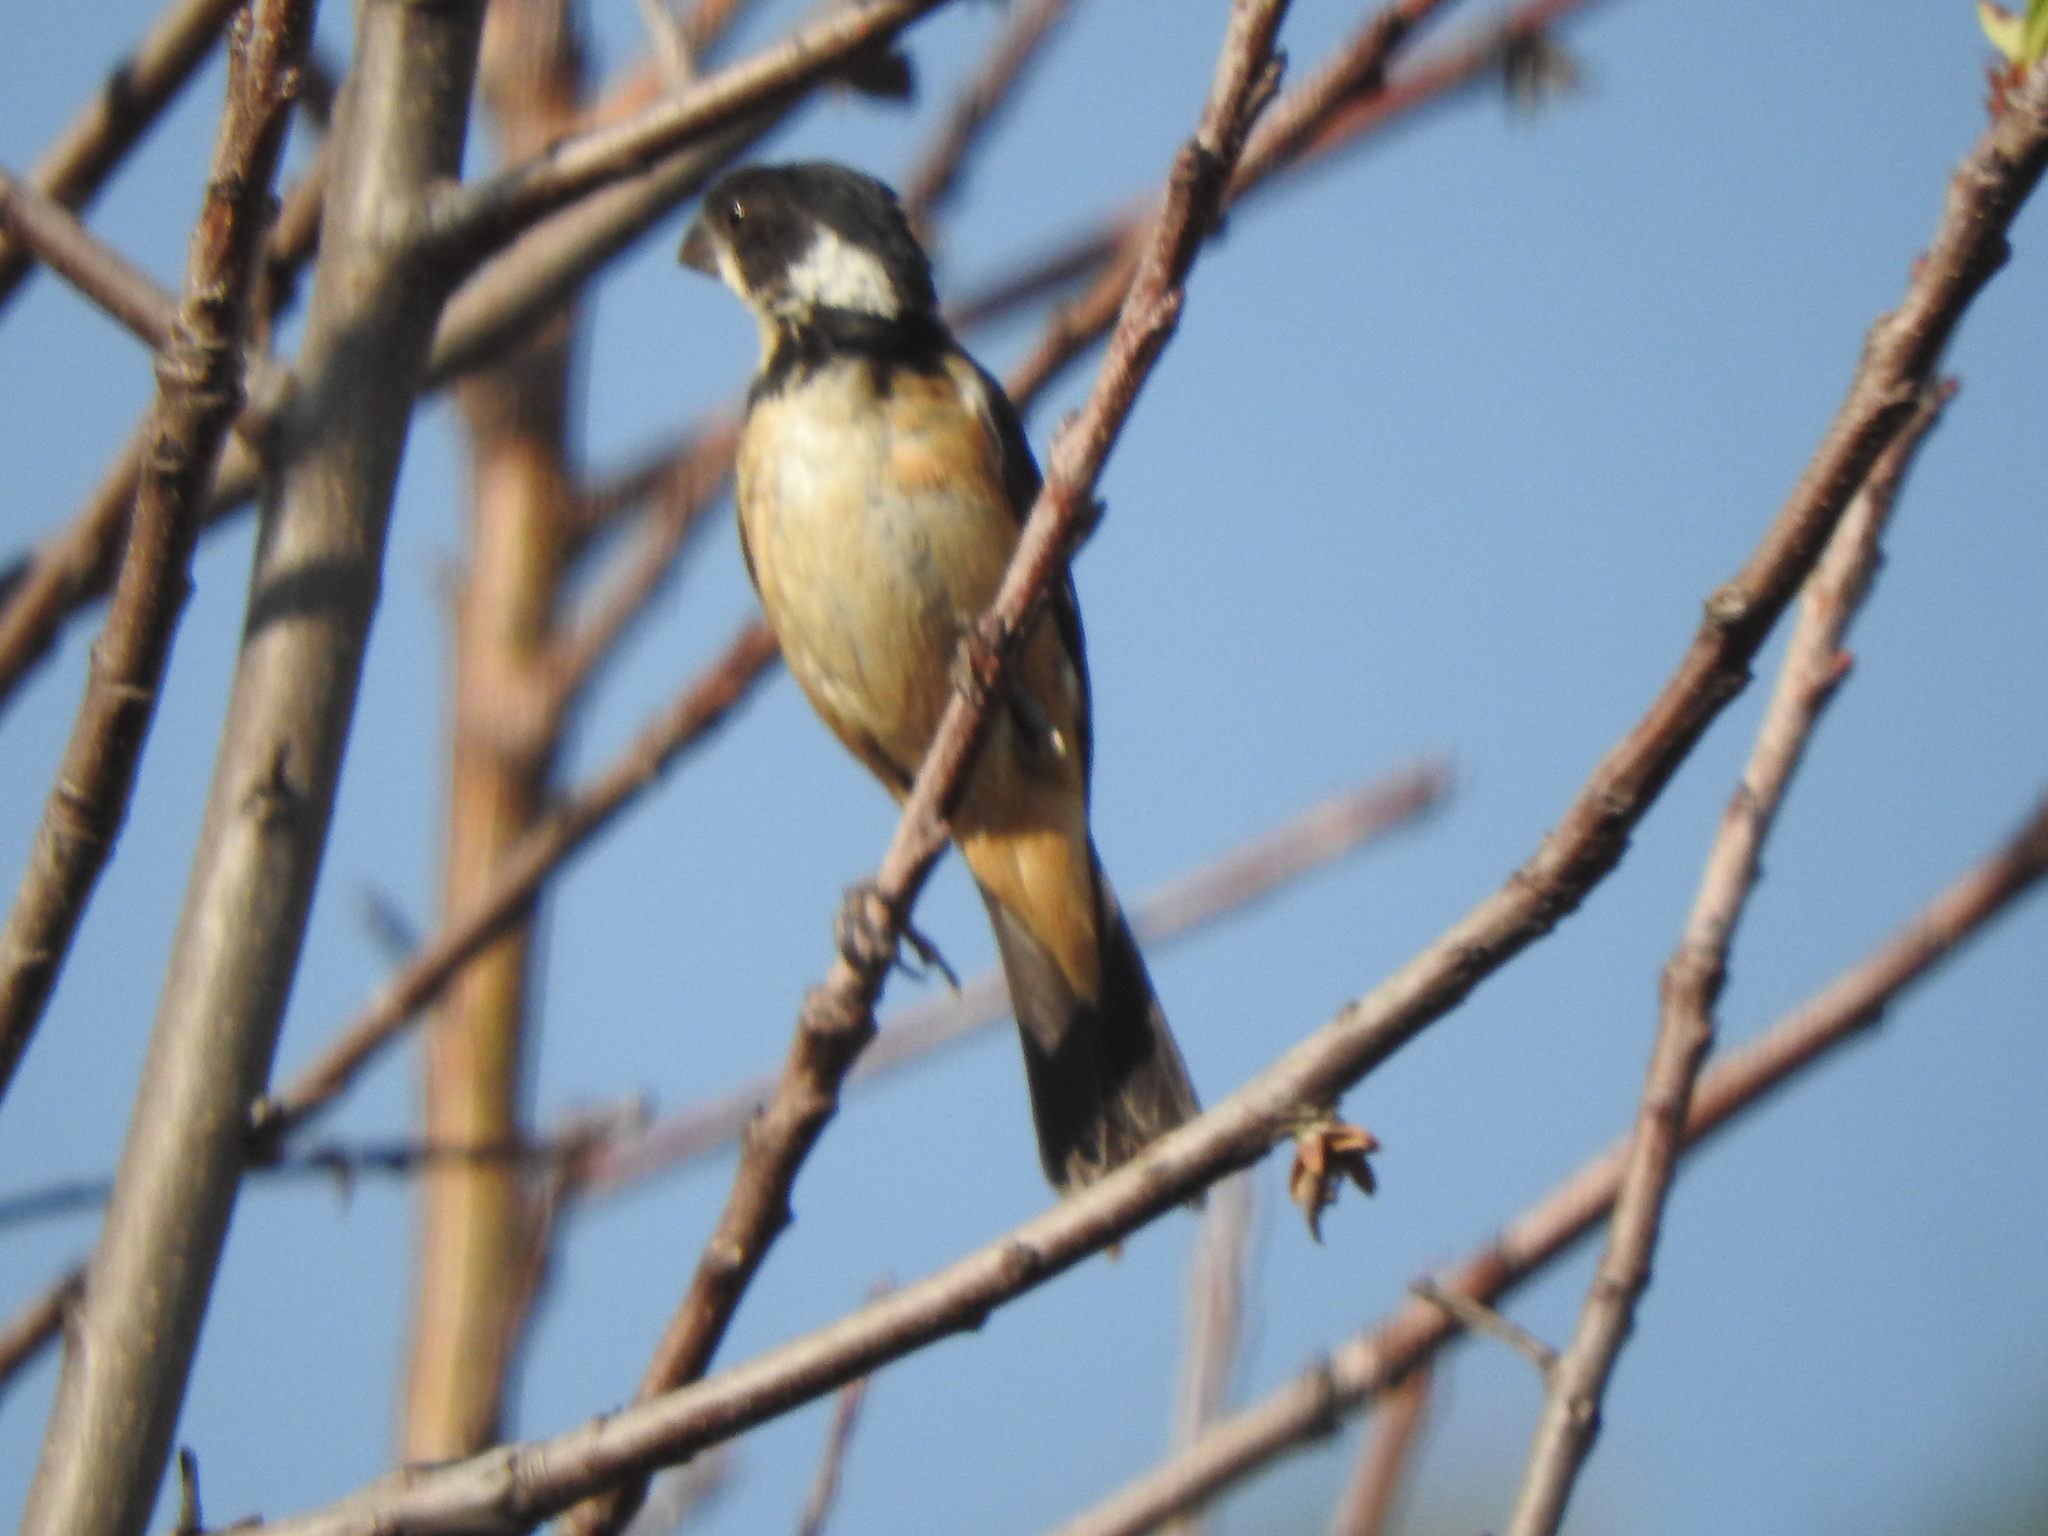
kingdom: Animalia
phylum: Chordata
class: Aves
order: Passeriformes
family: Thraupidae
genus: Sporophila
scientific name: Sporophila torqueola
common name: White-collared seedeater
